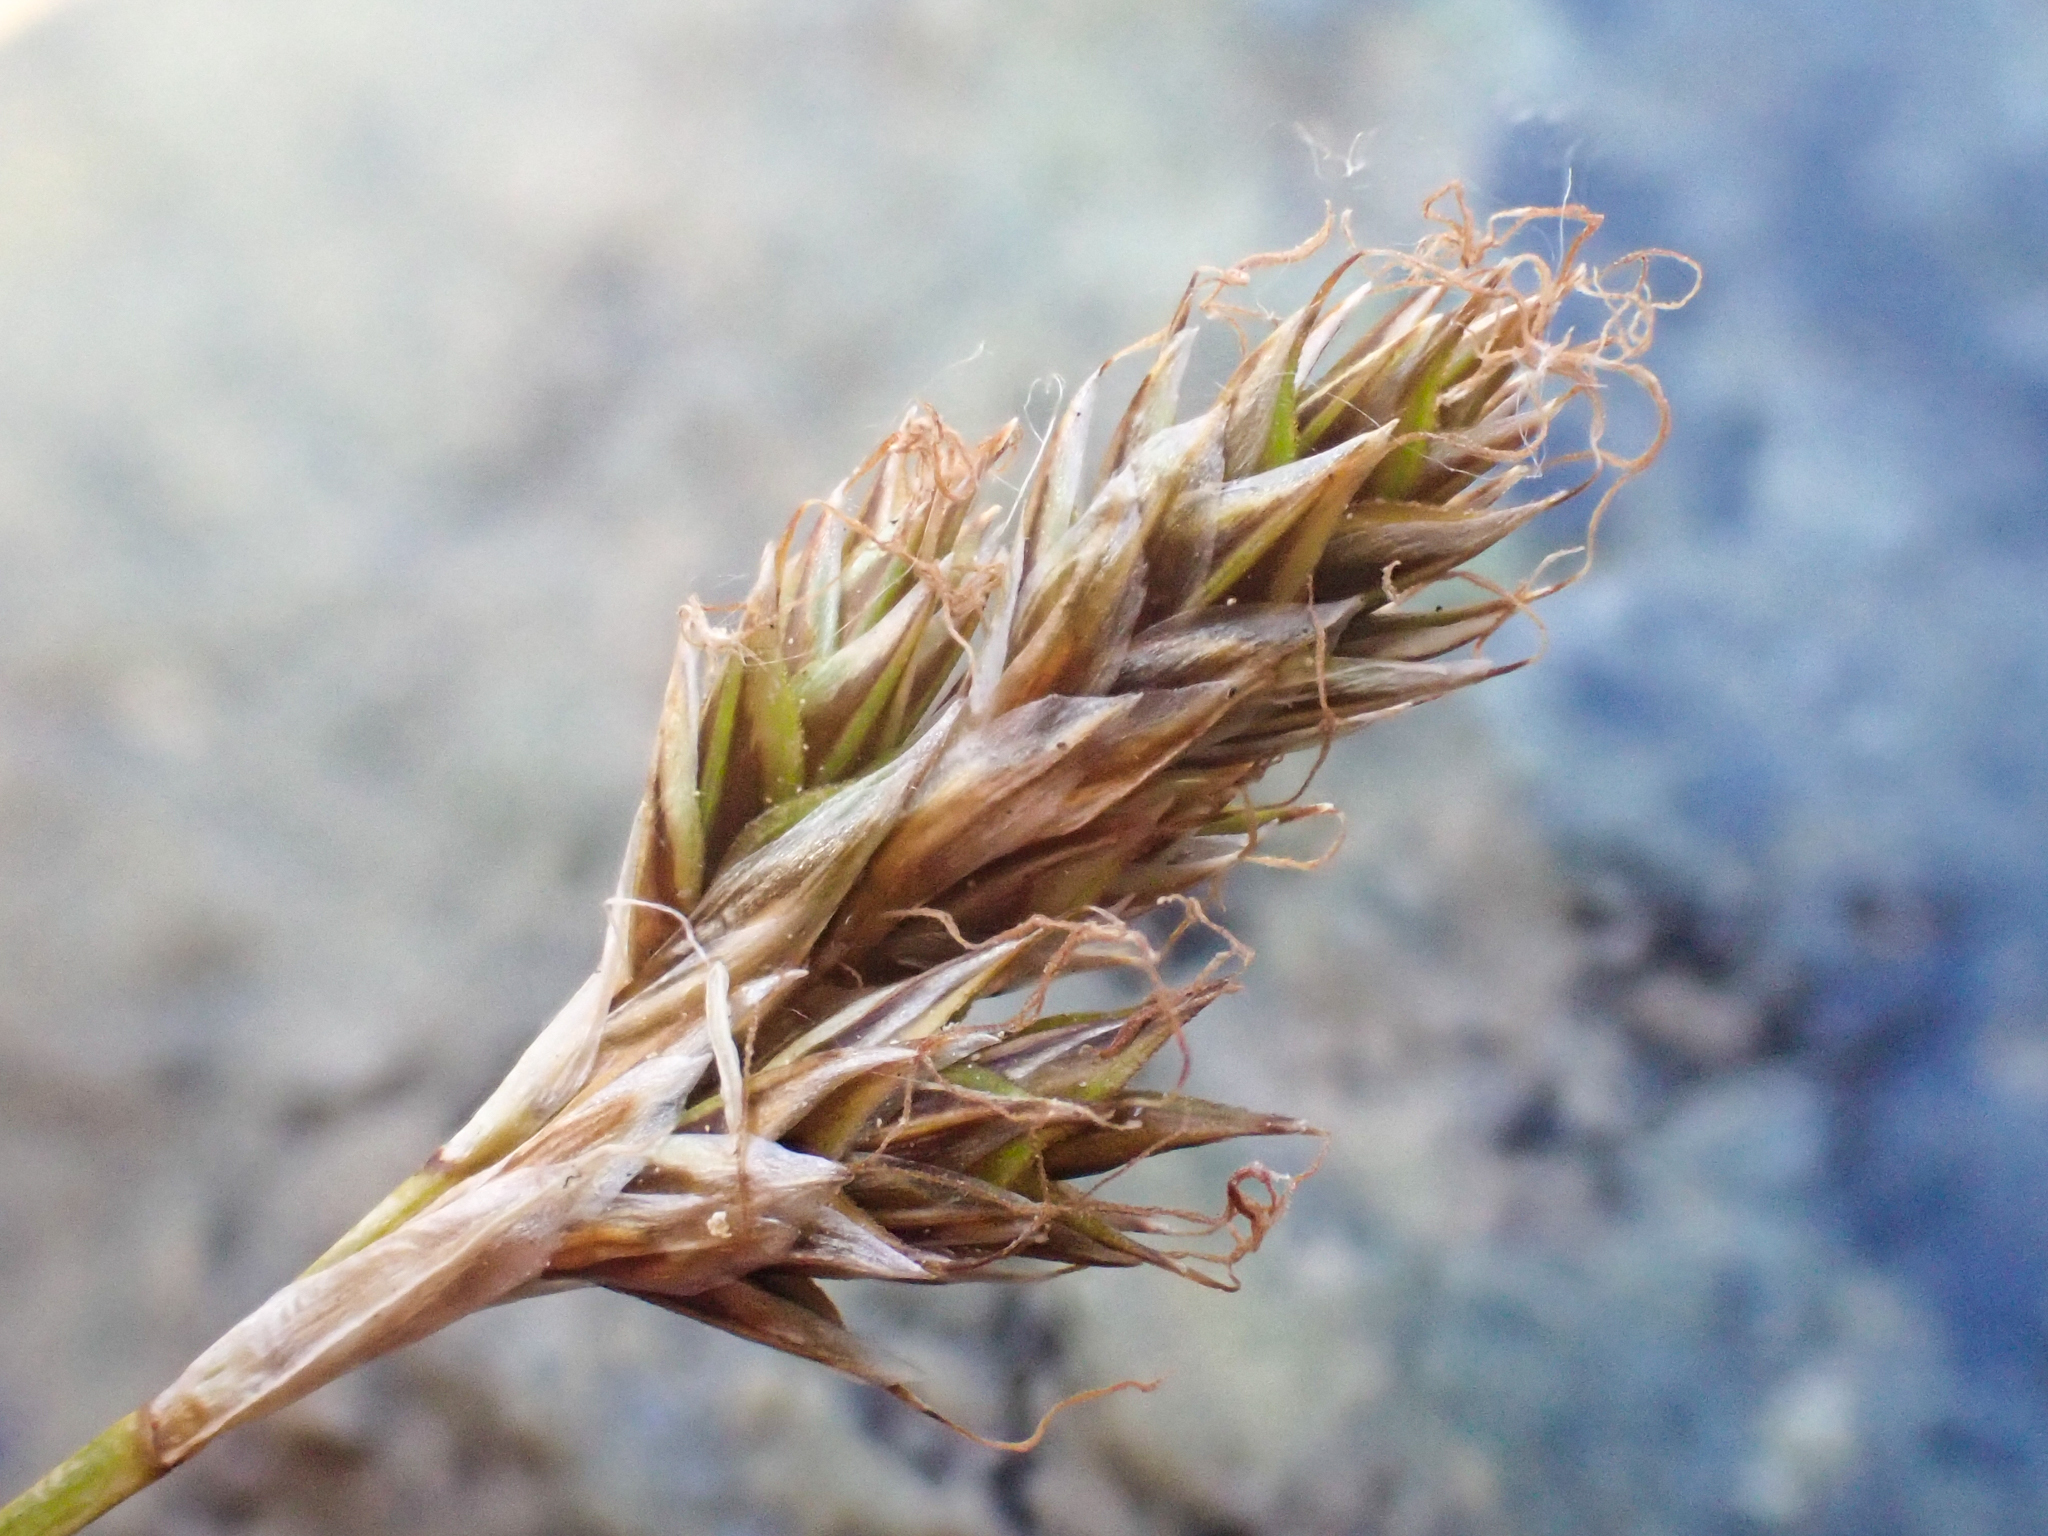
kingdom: Plantae
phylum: Tracheophyta
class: Liliopsida
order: Poales
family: Cyperaceae
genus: Carex
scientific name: Carex tahoensis
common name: Lake tahoe sedge
